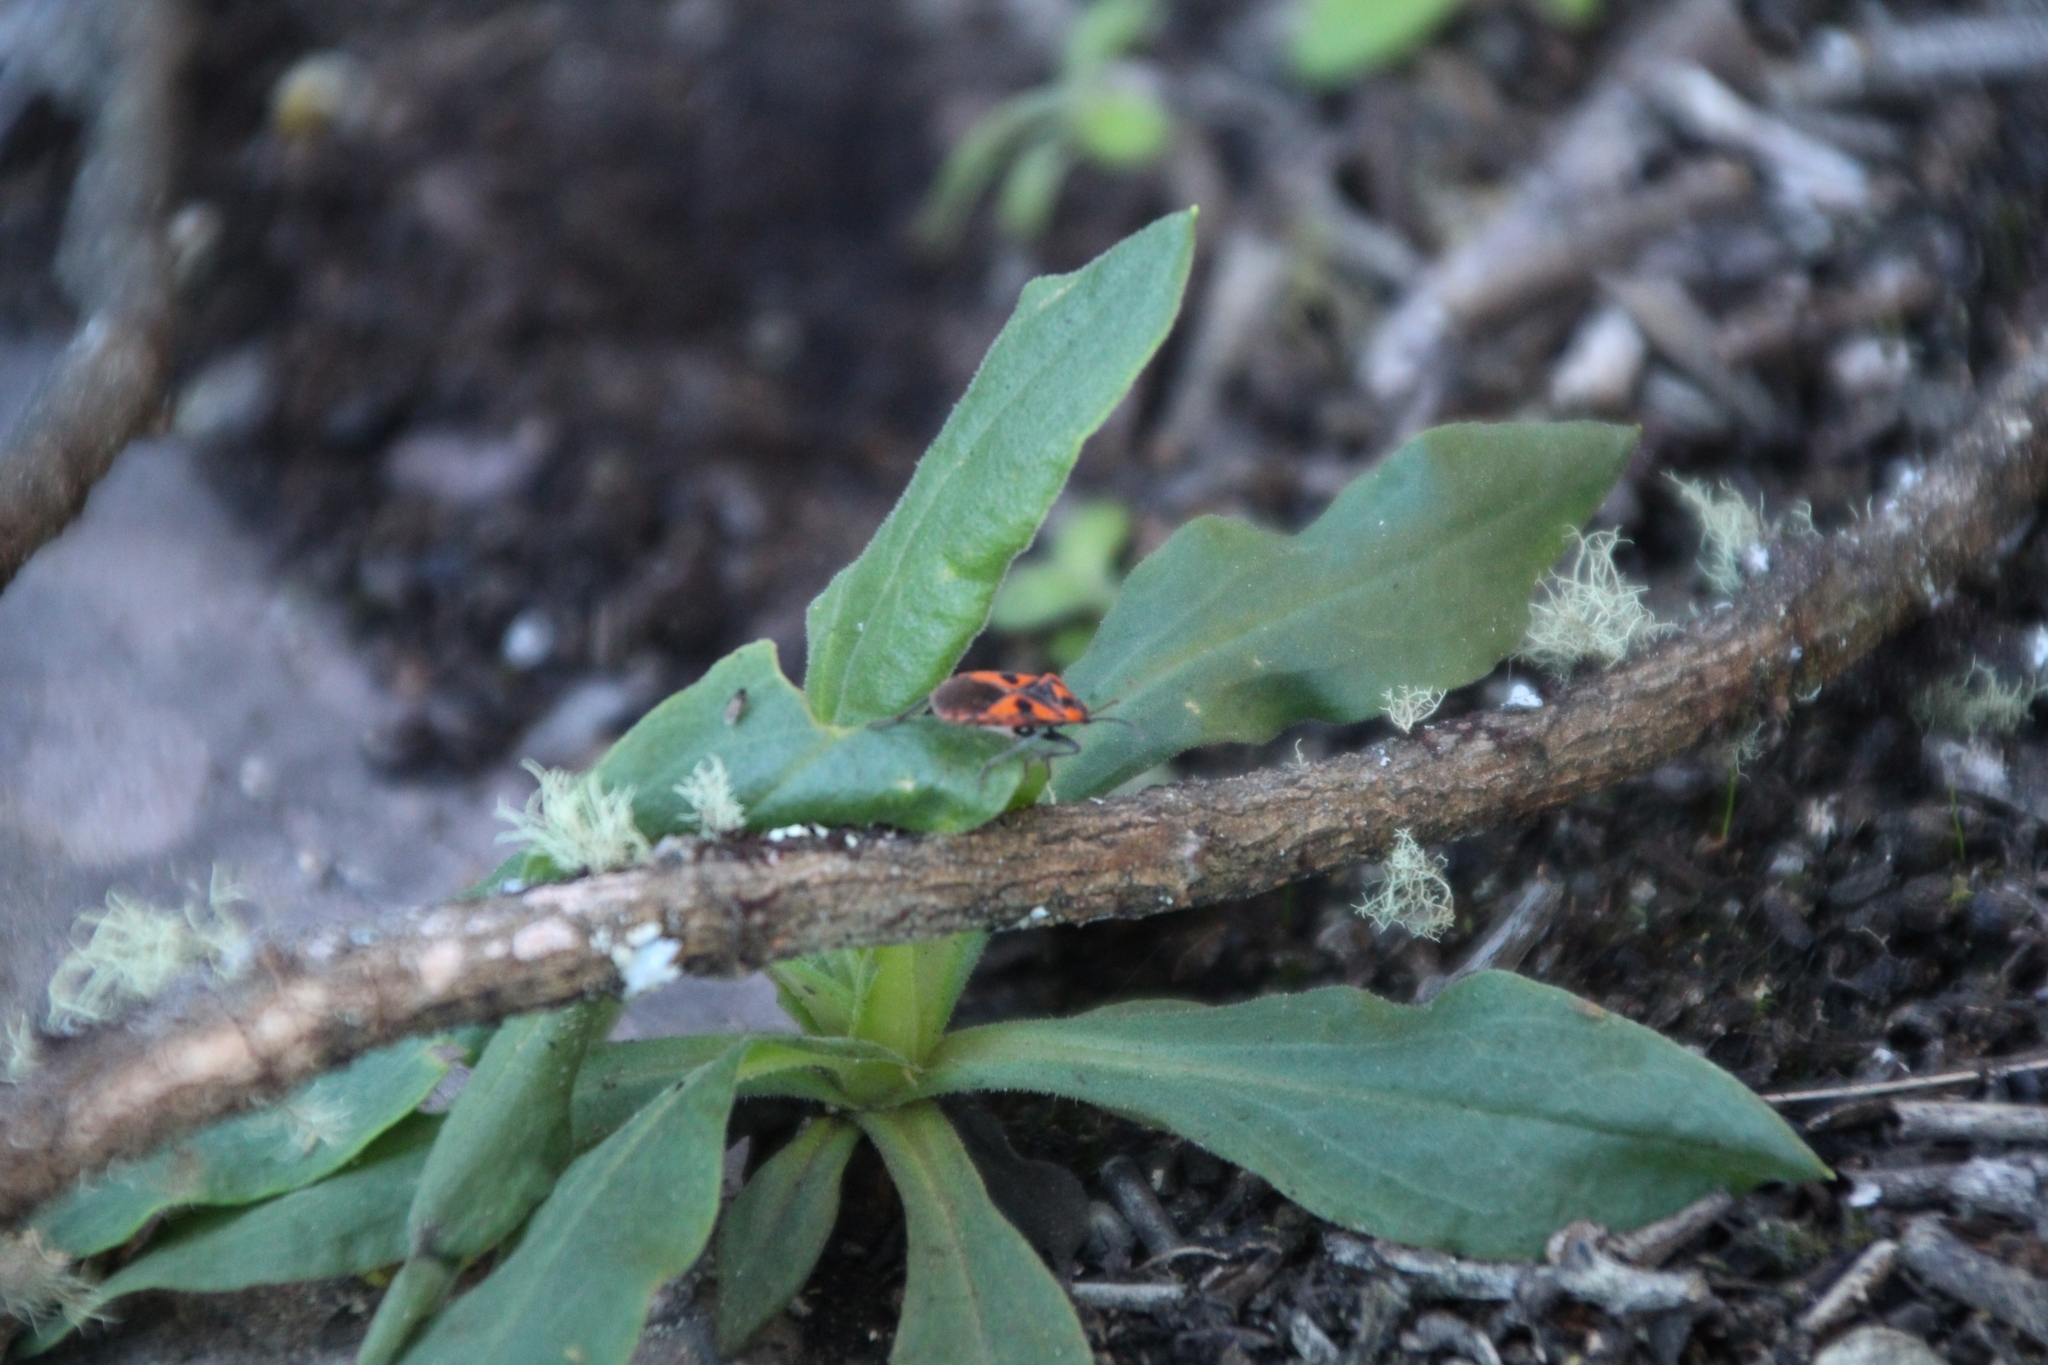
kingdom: Animalia
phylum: Arthropoda
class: Insecta
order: Hemiptera
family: Lygaeidae
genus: Spilostethus
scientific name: Spilostethus pacificus
